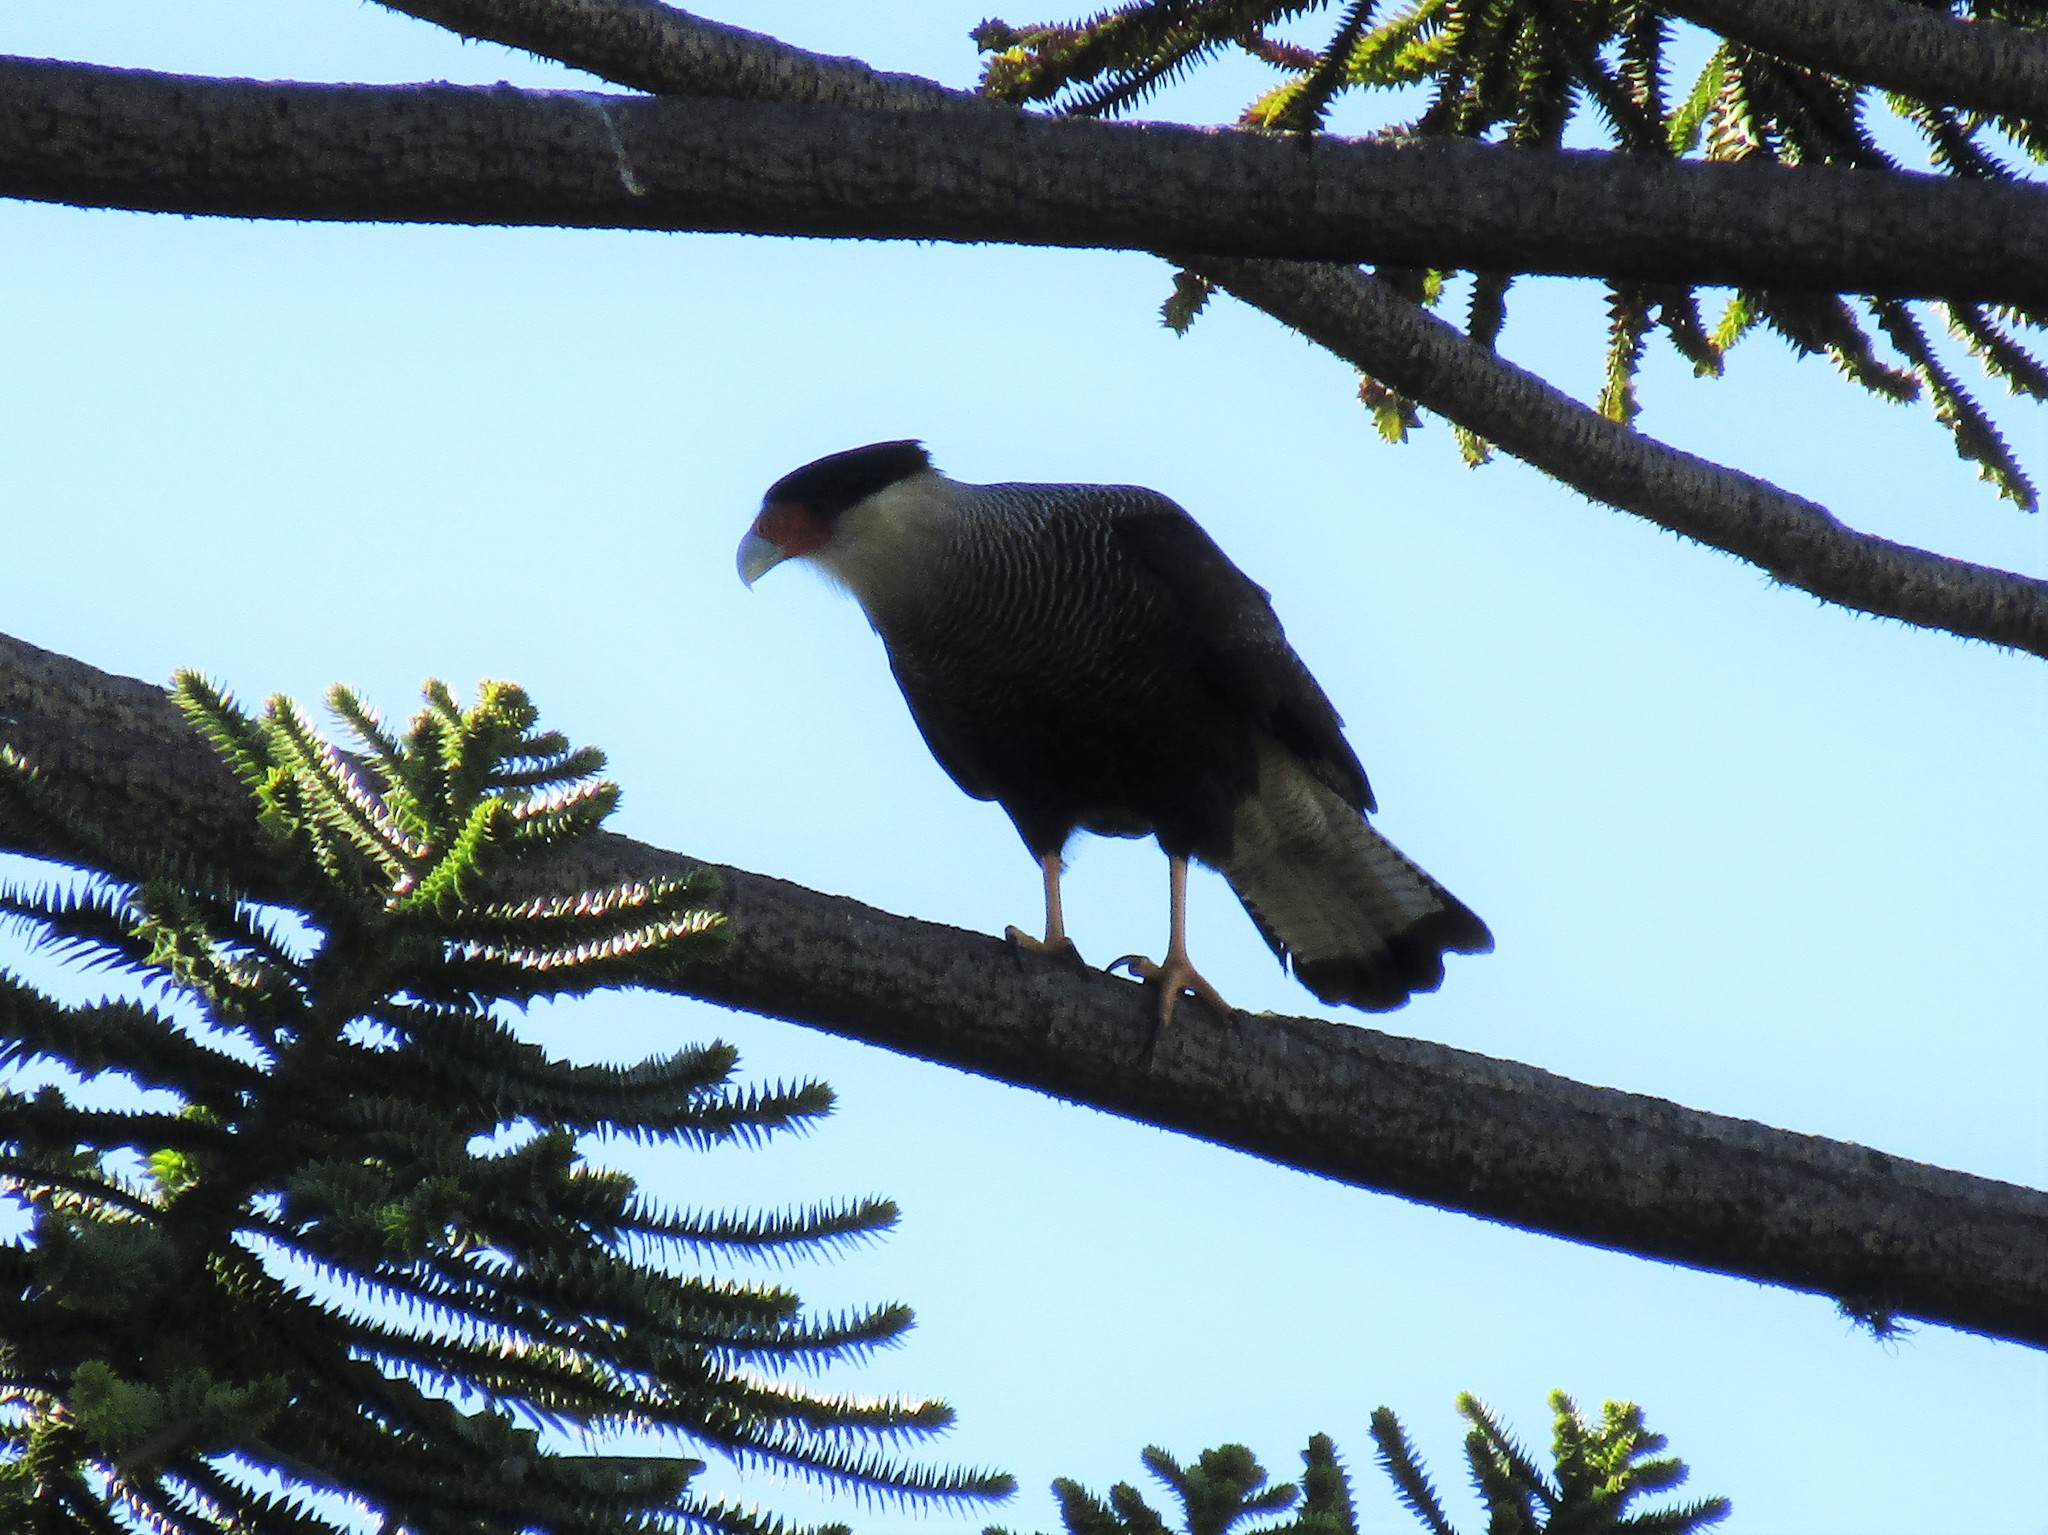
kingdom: Animalia
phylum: Chordata
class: Aves
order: Falconiformes
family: Falconidae
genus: Caracara
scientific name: Caracara plancus
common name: Southern caracara
